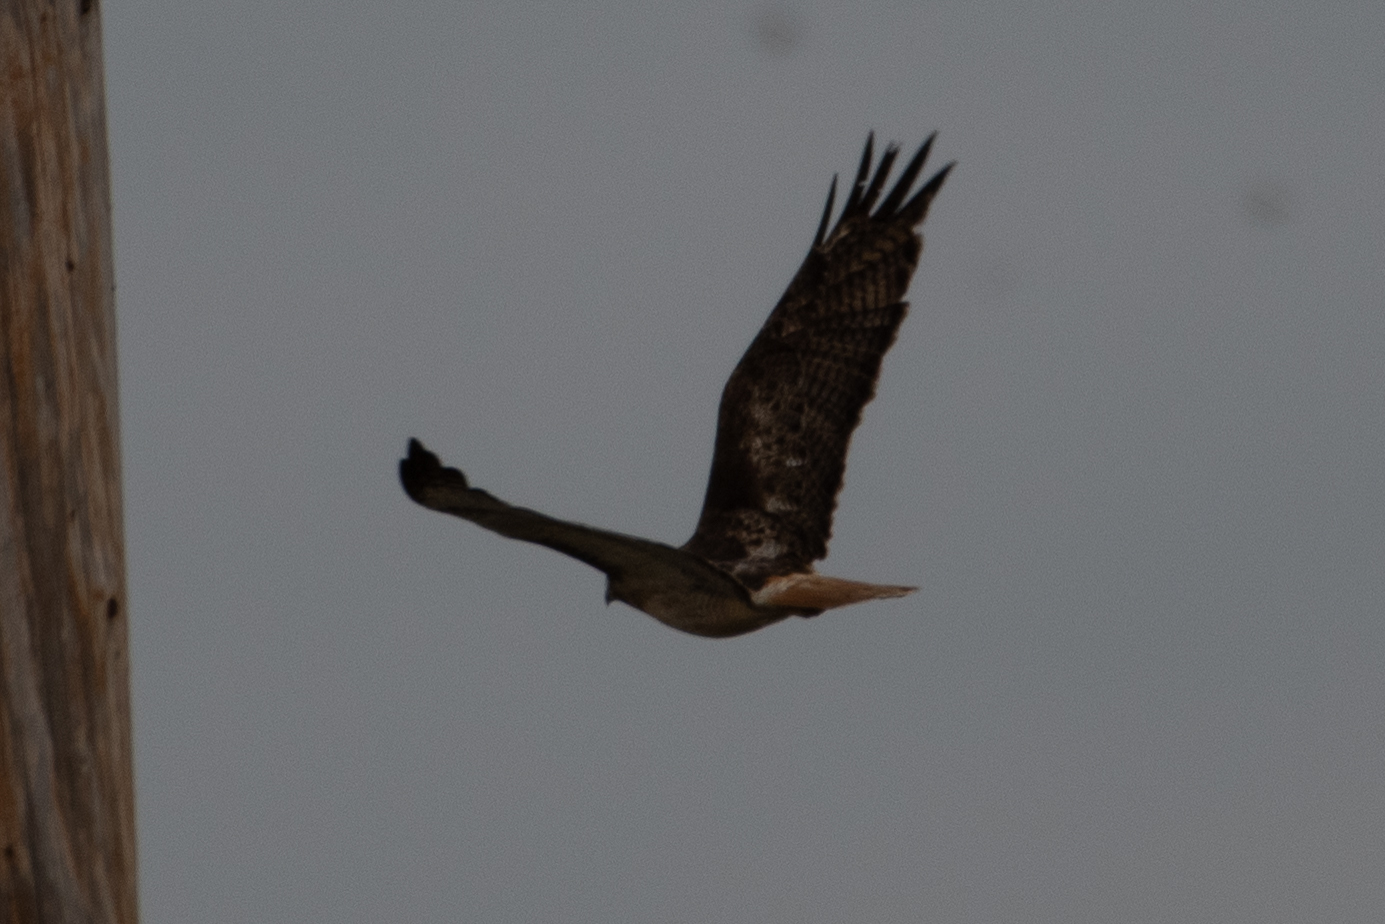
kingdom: Animalia
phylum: Chordata
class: Aves
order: Accipitriformes
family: Accipitridae
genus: Buteo
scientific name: Buteo jamaicensis
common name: Red-tailed hawk
